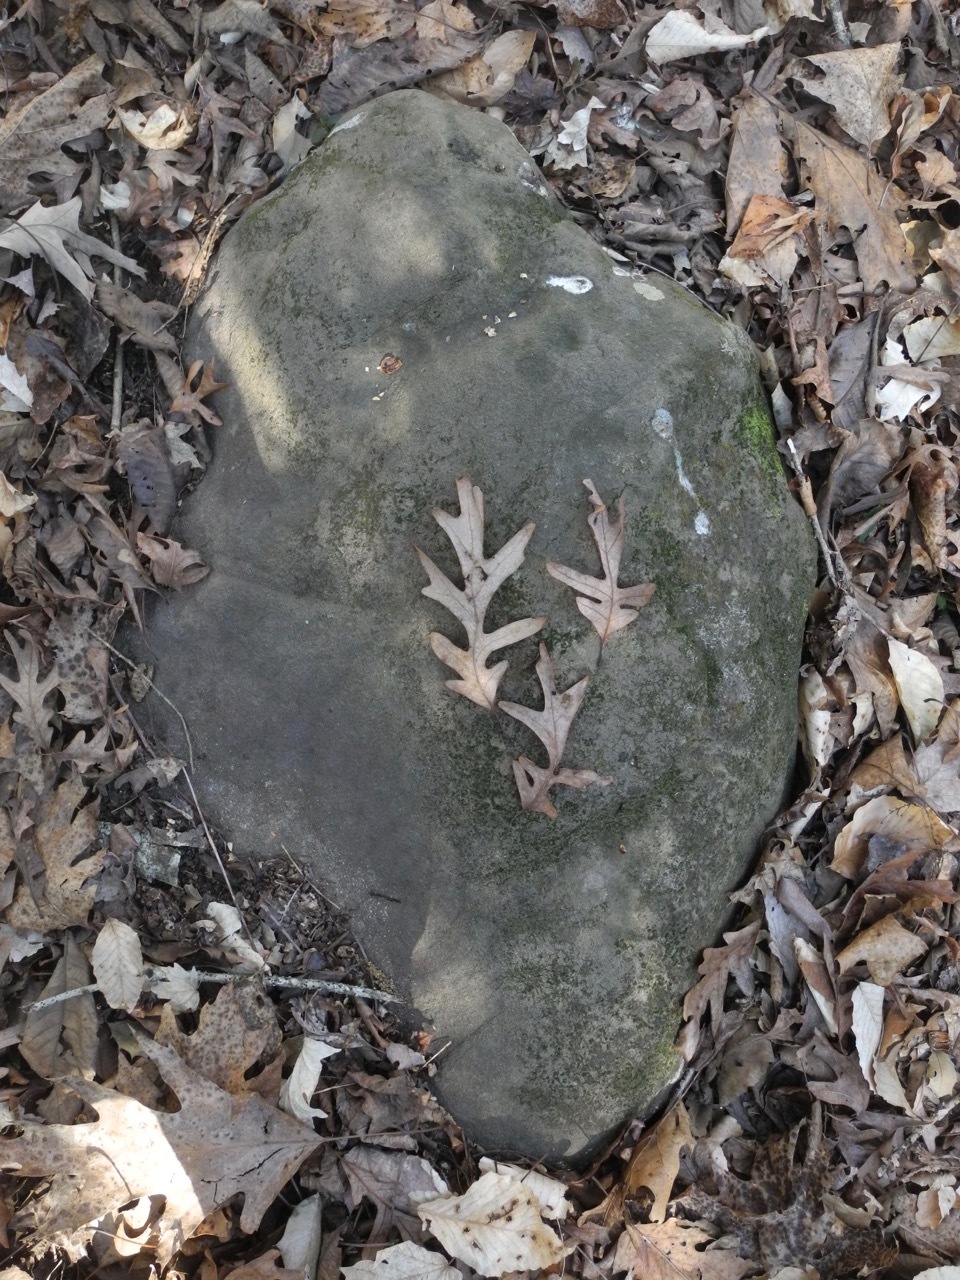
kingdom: Plantae
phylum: Tracheophyta
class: Magnoliopsida
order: Fagales
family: Fagaceae
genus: Quercus
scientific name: Quercus alba
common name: White oak
